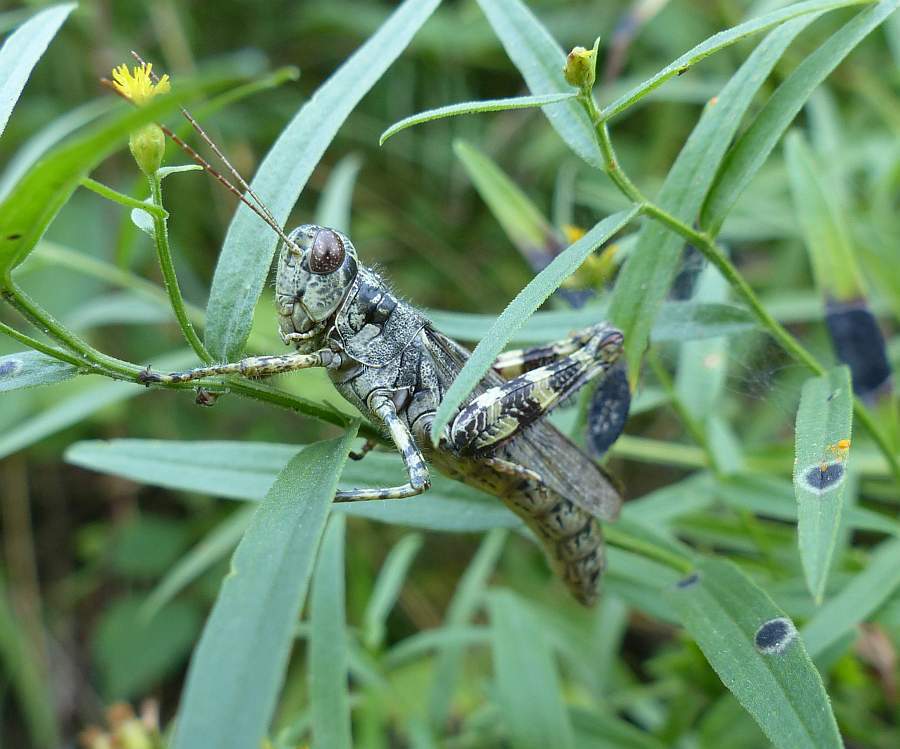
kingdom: Animalia
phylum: Arthropoda
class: Insecta
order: Orthoptera
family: Acrididae
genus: Melanoplus
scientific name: Melanoplus punctulatus
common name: Pine-tree spur-throat grasshopper
